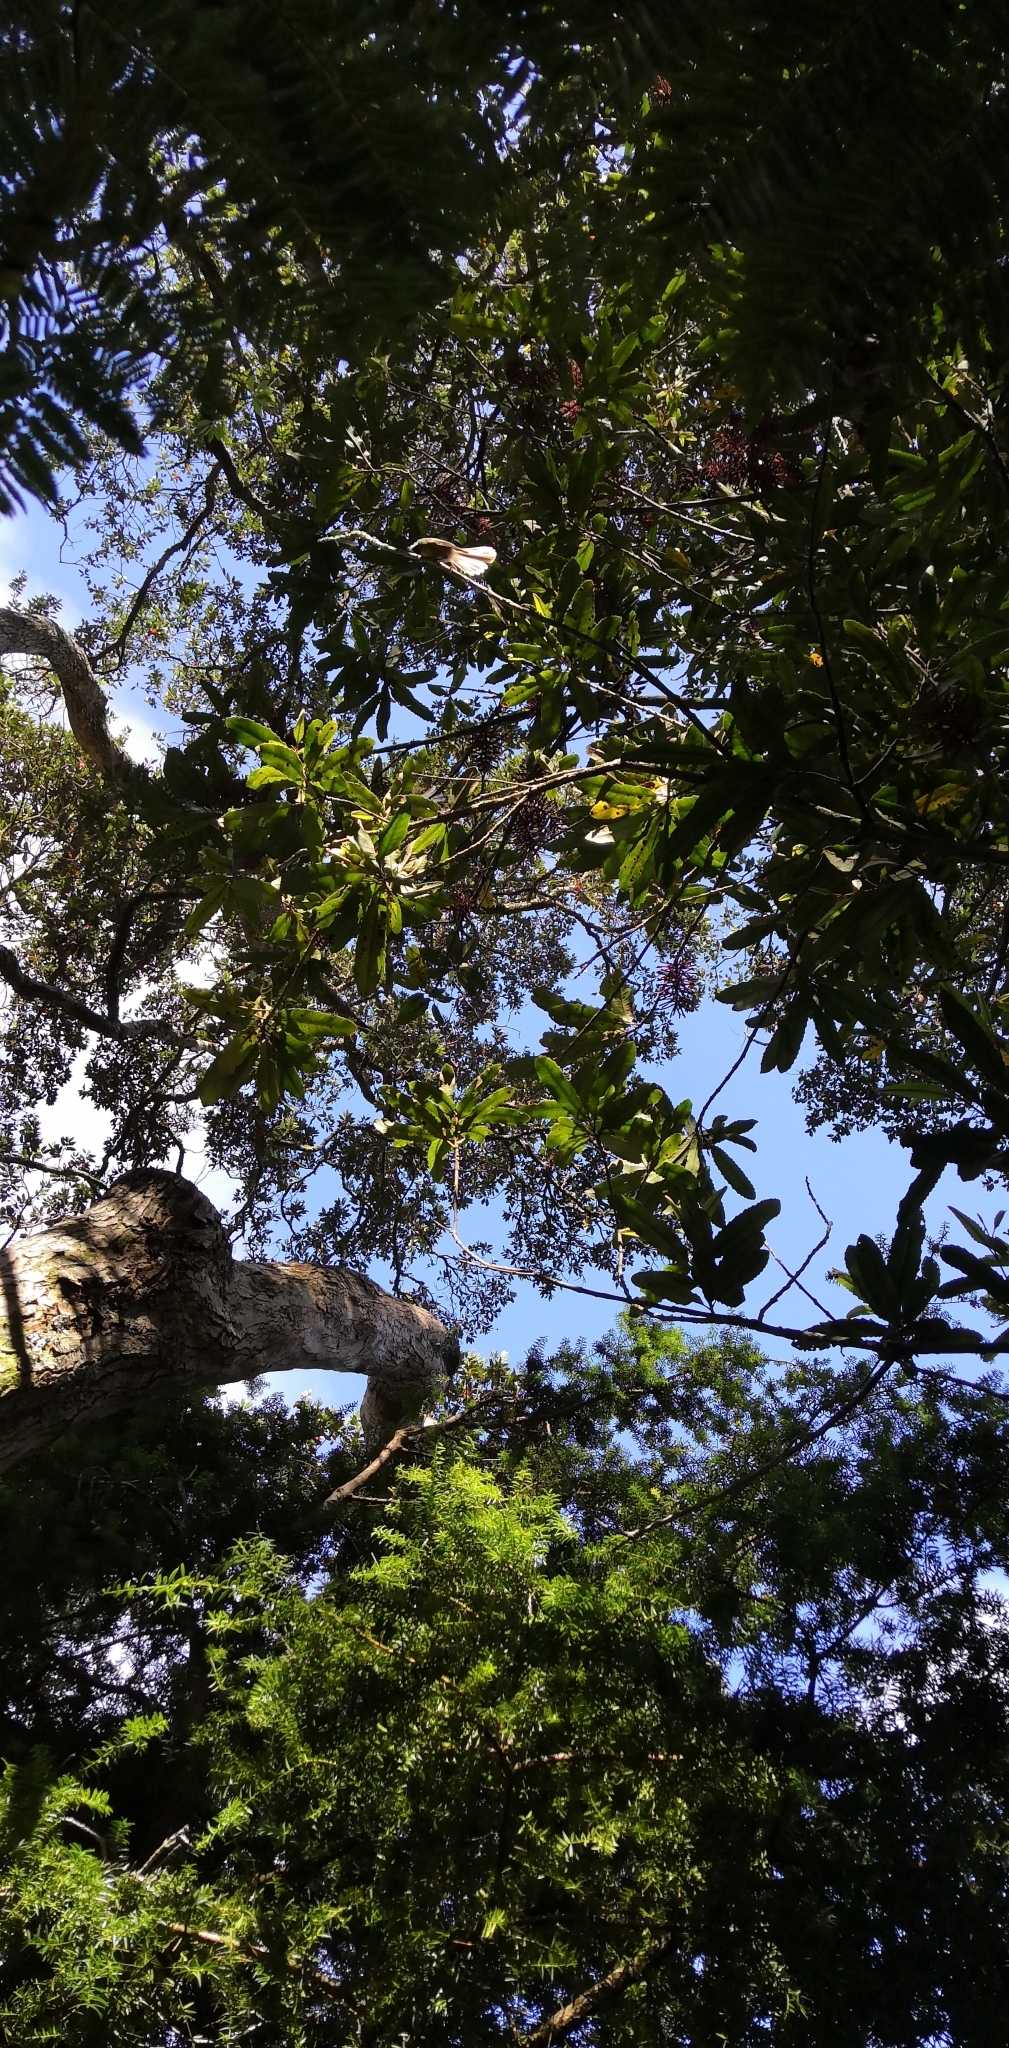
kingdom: Animalia
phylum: Chordata
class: Aves
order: Passeriformes
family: Rhipiduridae
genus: Rhipidura
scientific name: Rhipidura fuliginosa
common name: New zealand fantail
